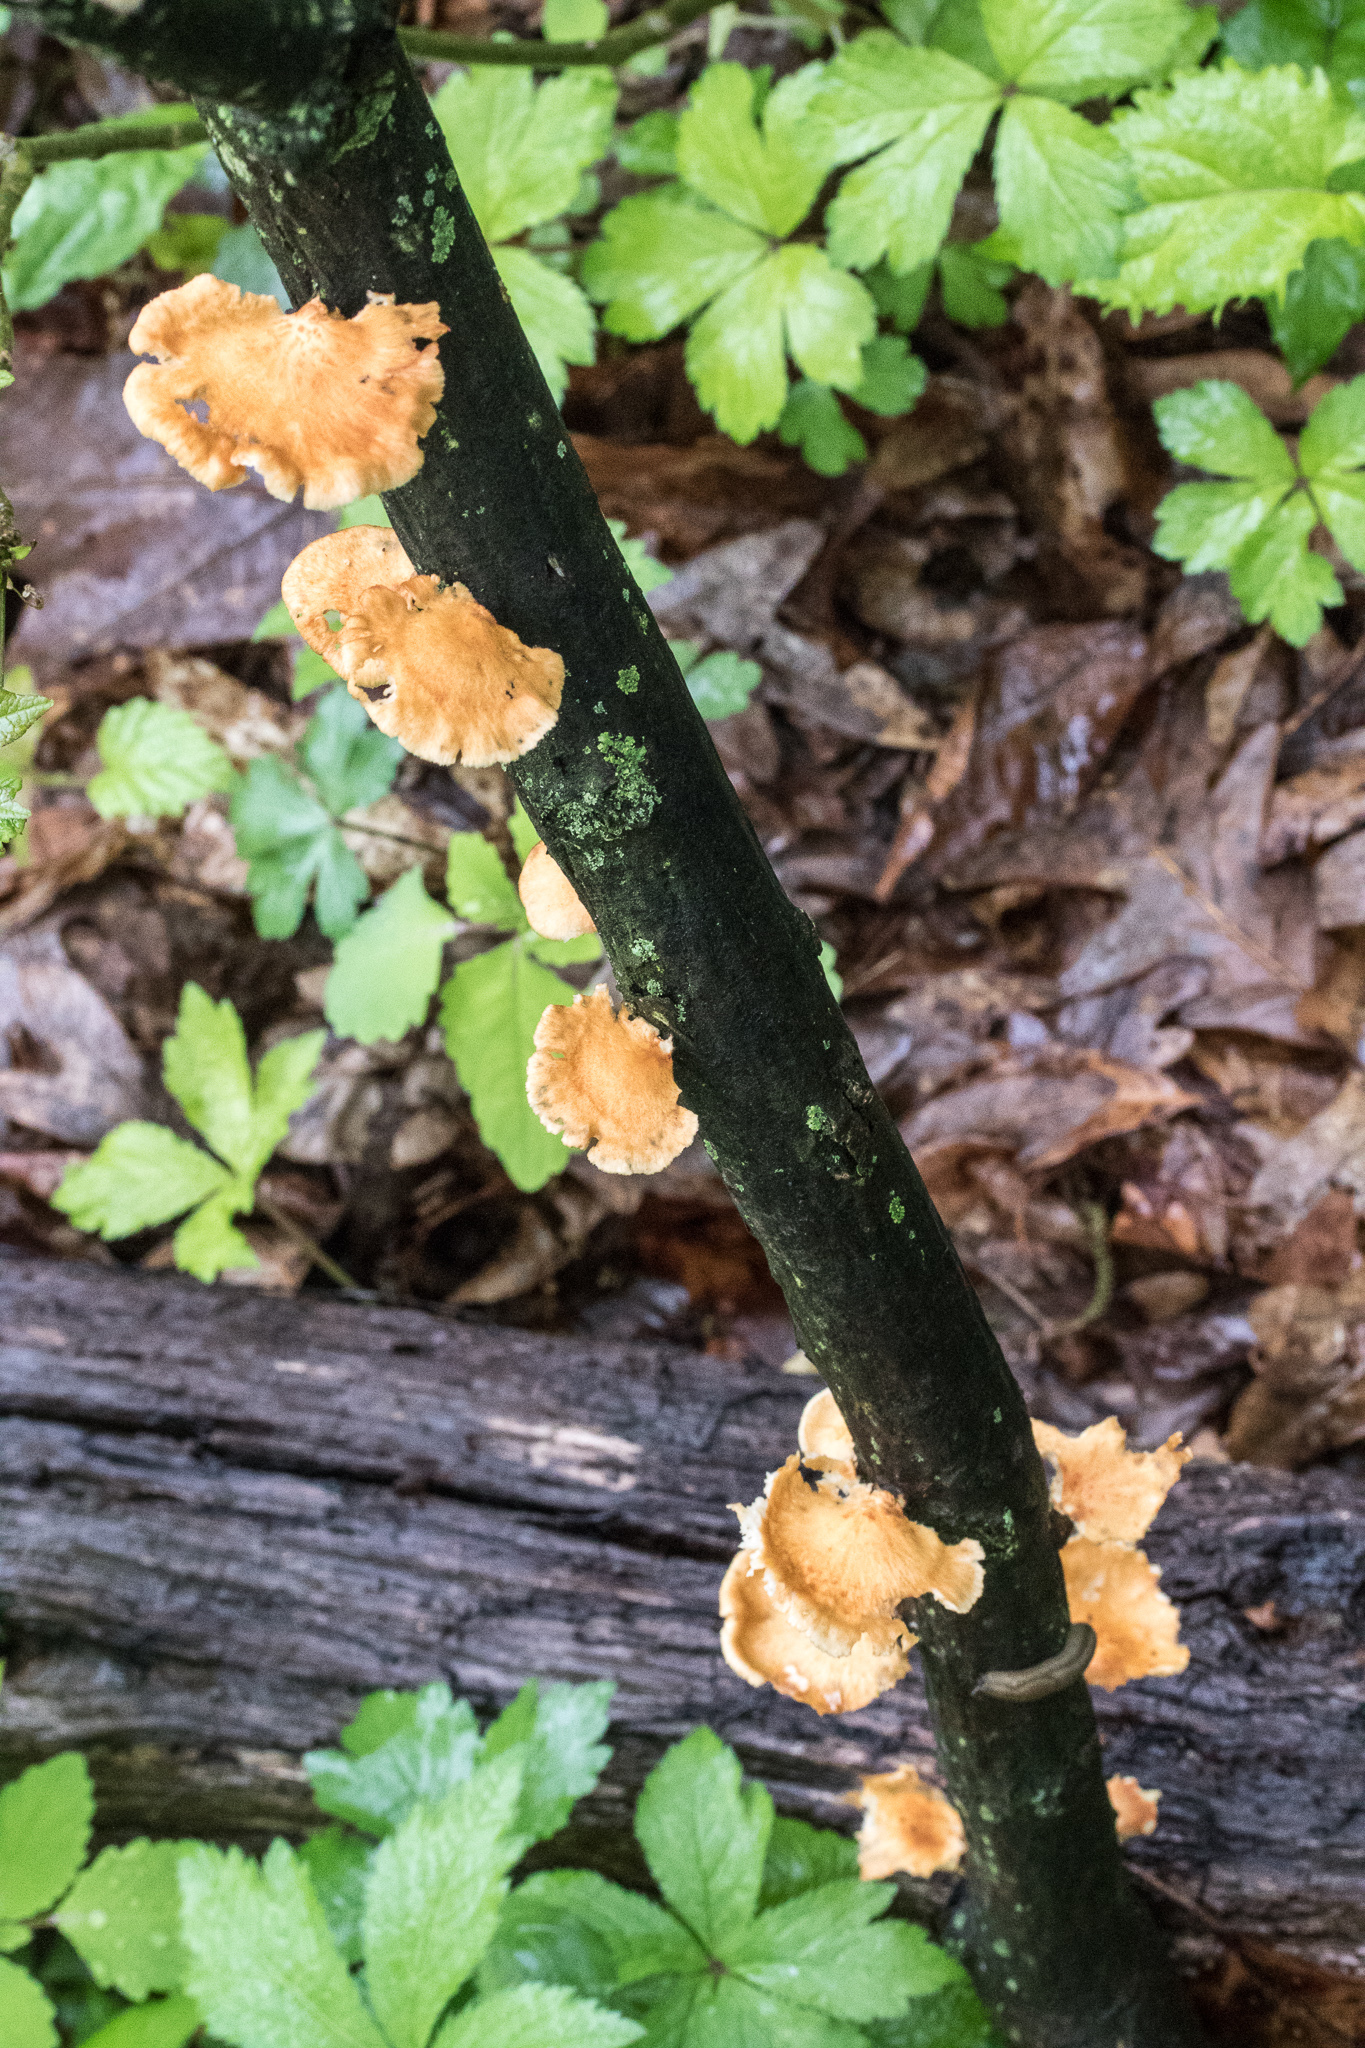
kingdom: Fungi
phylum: Basidiomycota
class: Agaricomycetes
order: Polyporales
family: Polyporaceae
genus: Neofavolus
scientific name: Neofavolus alveolaris
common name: Hexagonal-pored polypore
